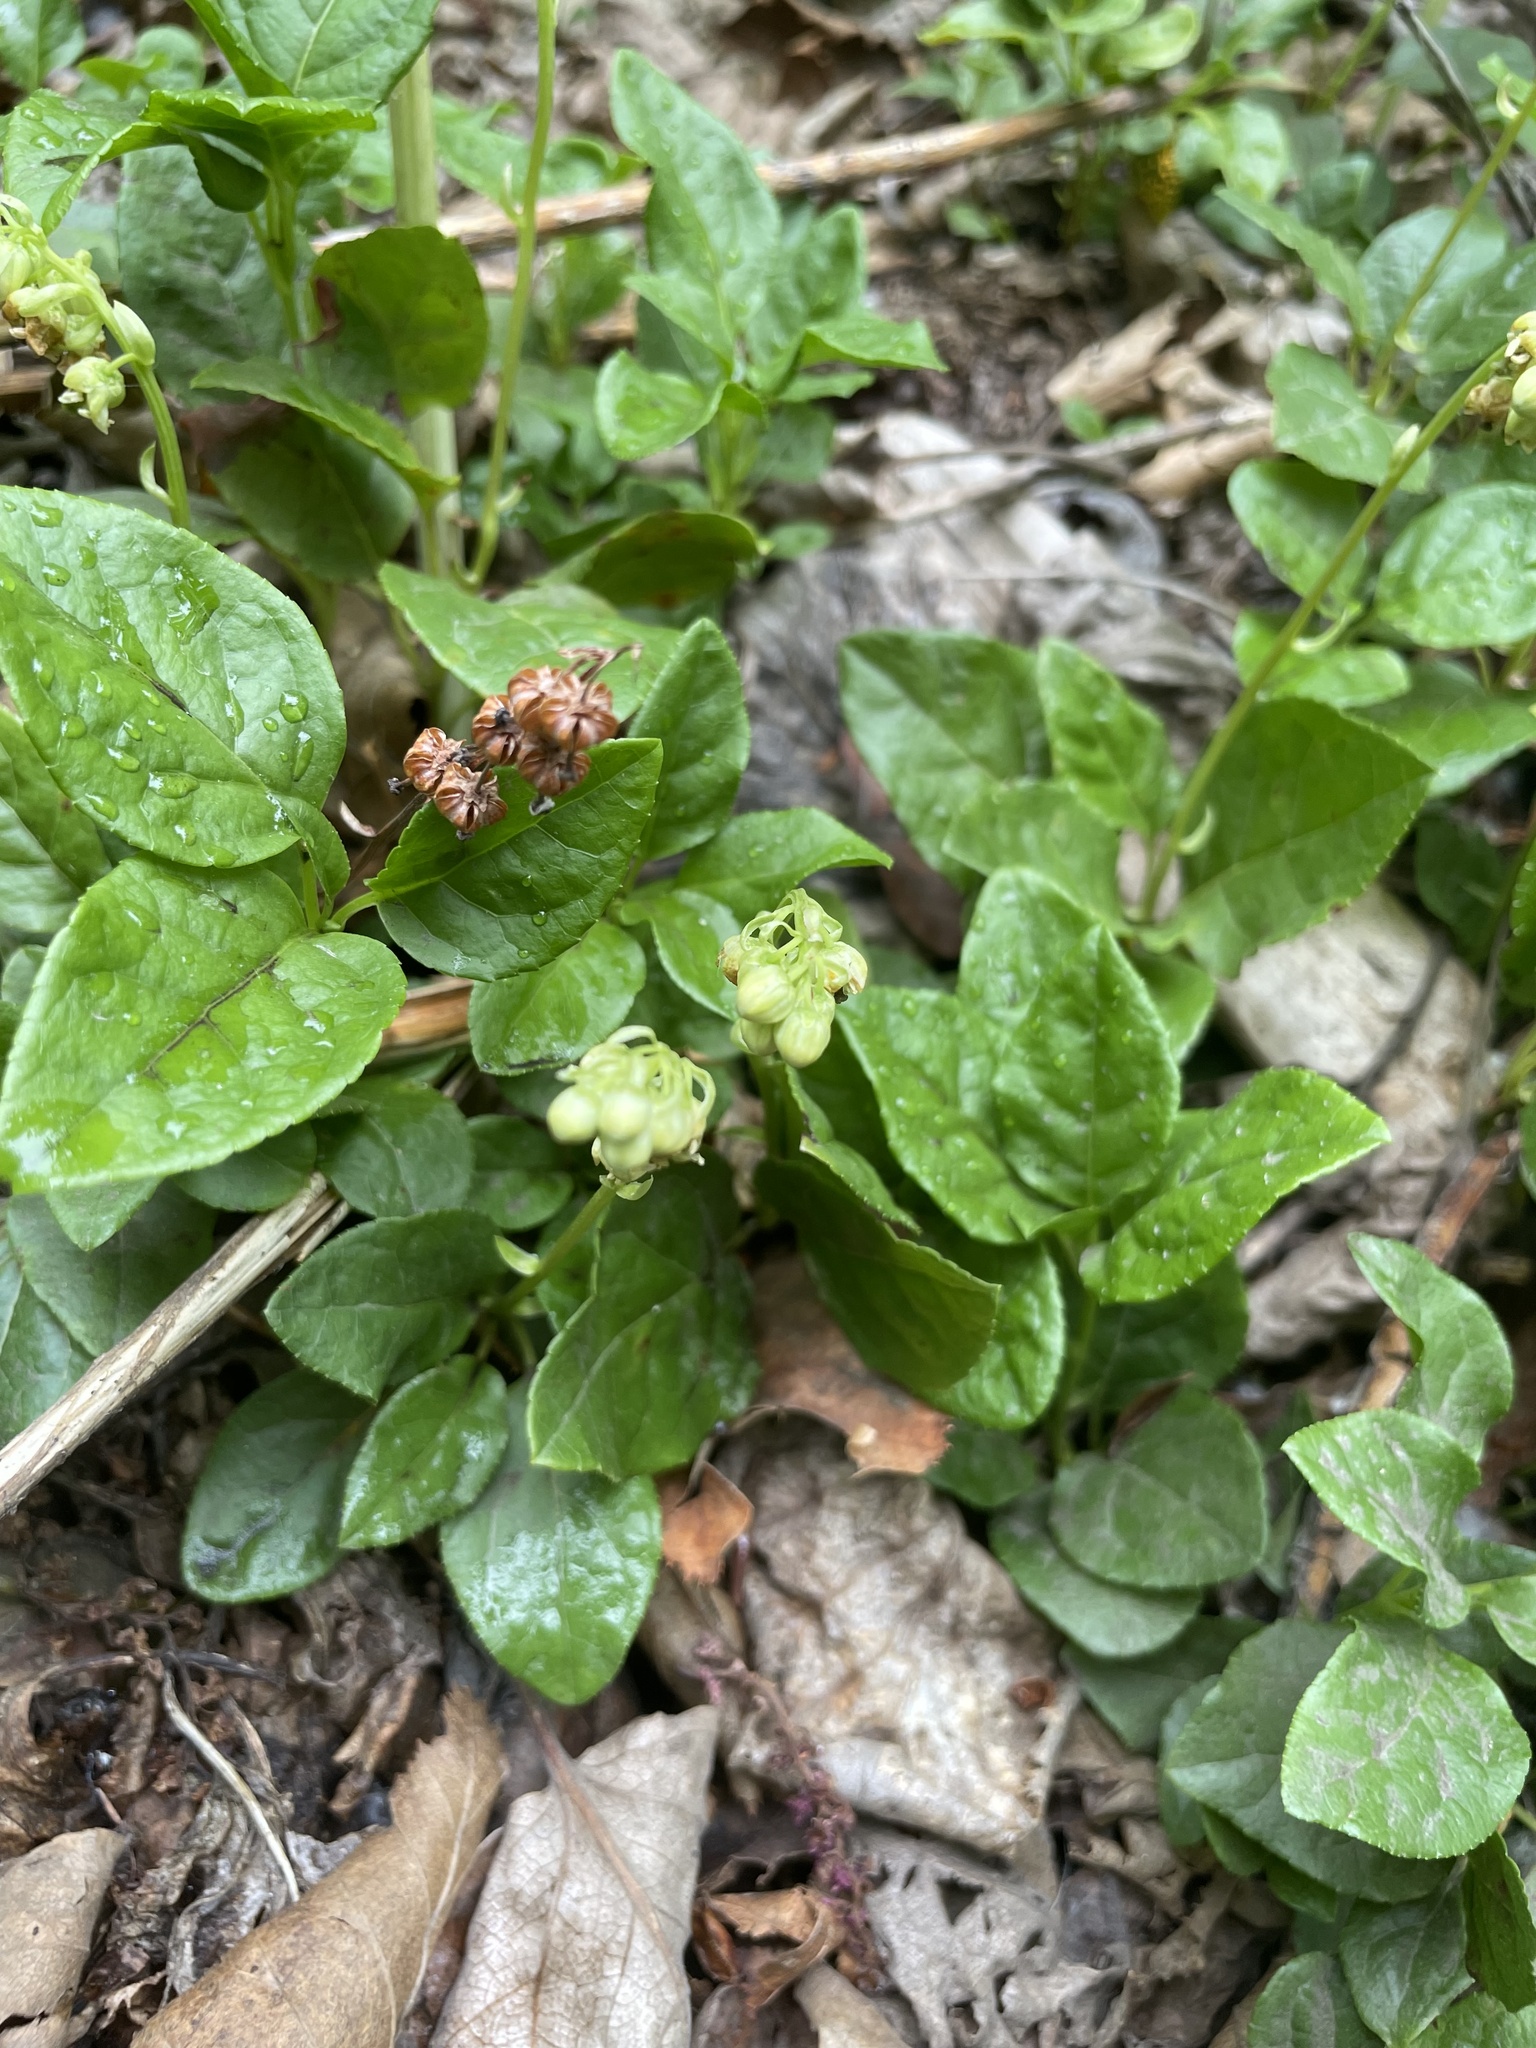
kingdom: Plantae
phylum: Tracheophyta
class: Magnoliopsida
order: Ericales
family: Ericaceae
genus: Orthilia
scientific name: Orthilia secunda
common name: One-sided orthilia
